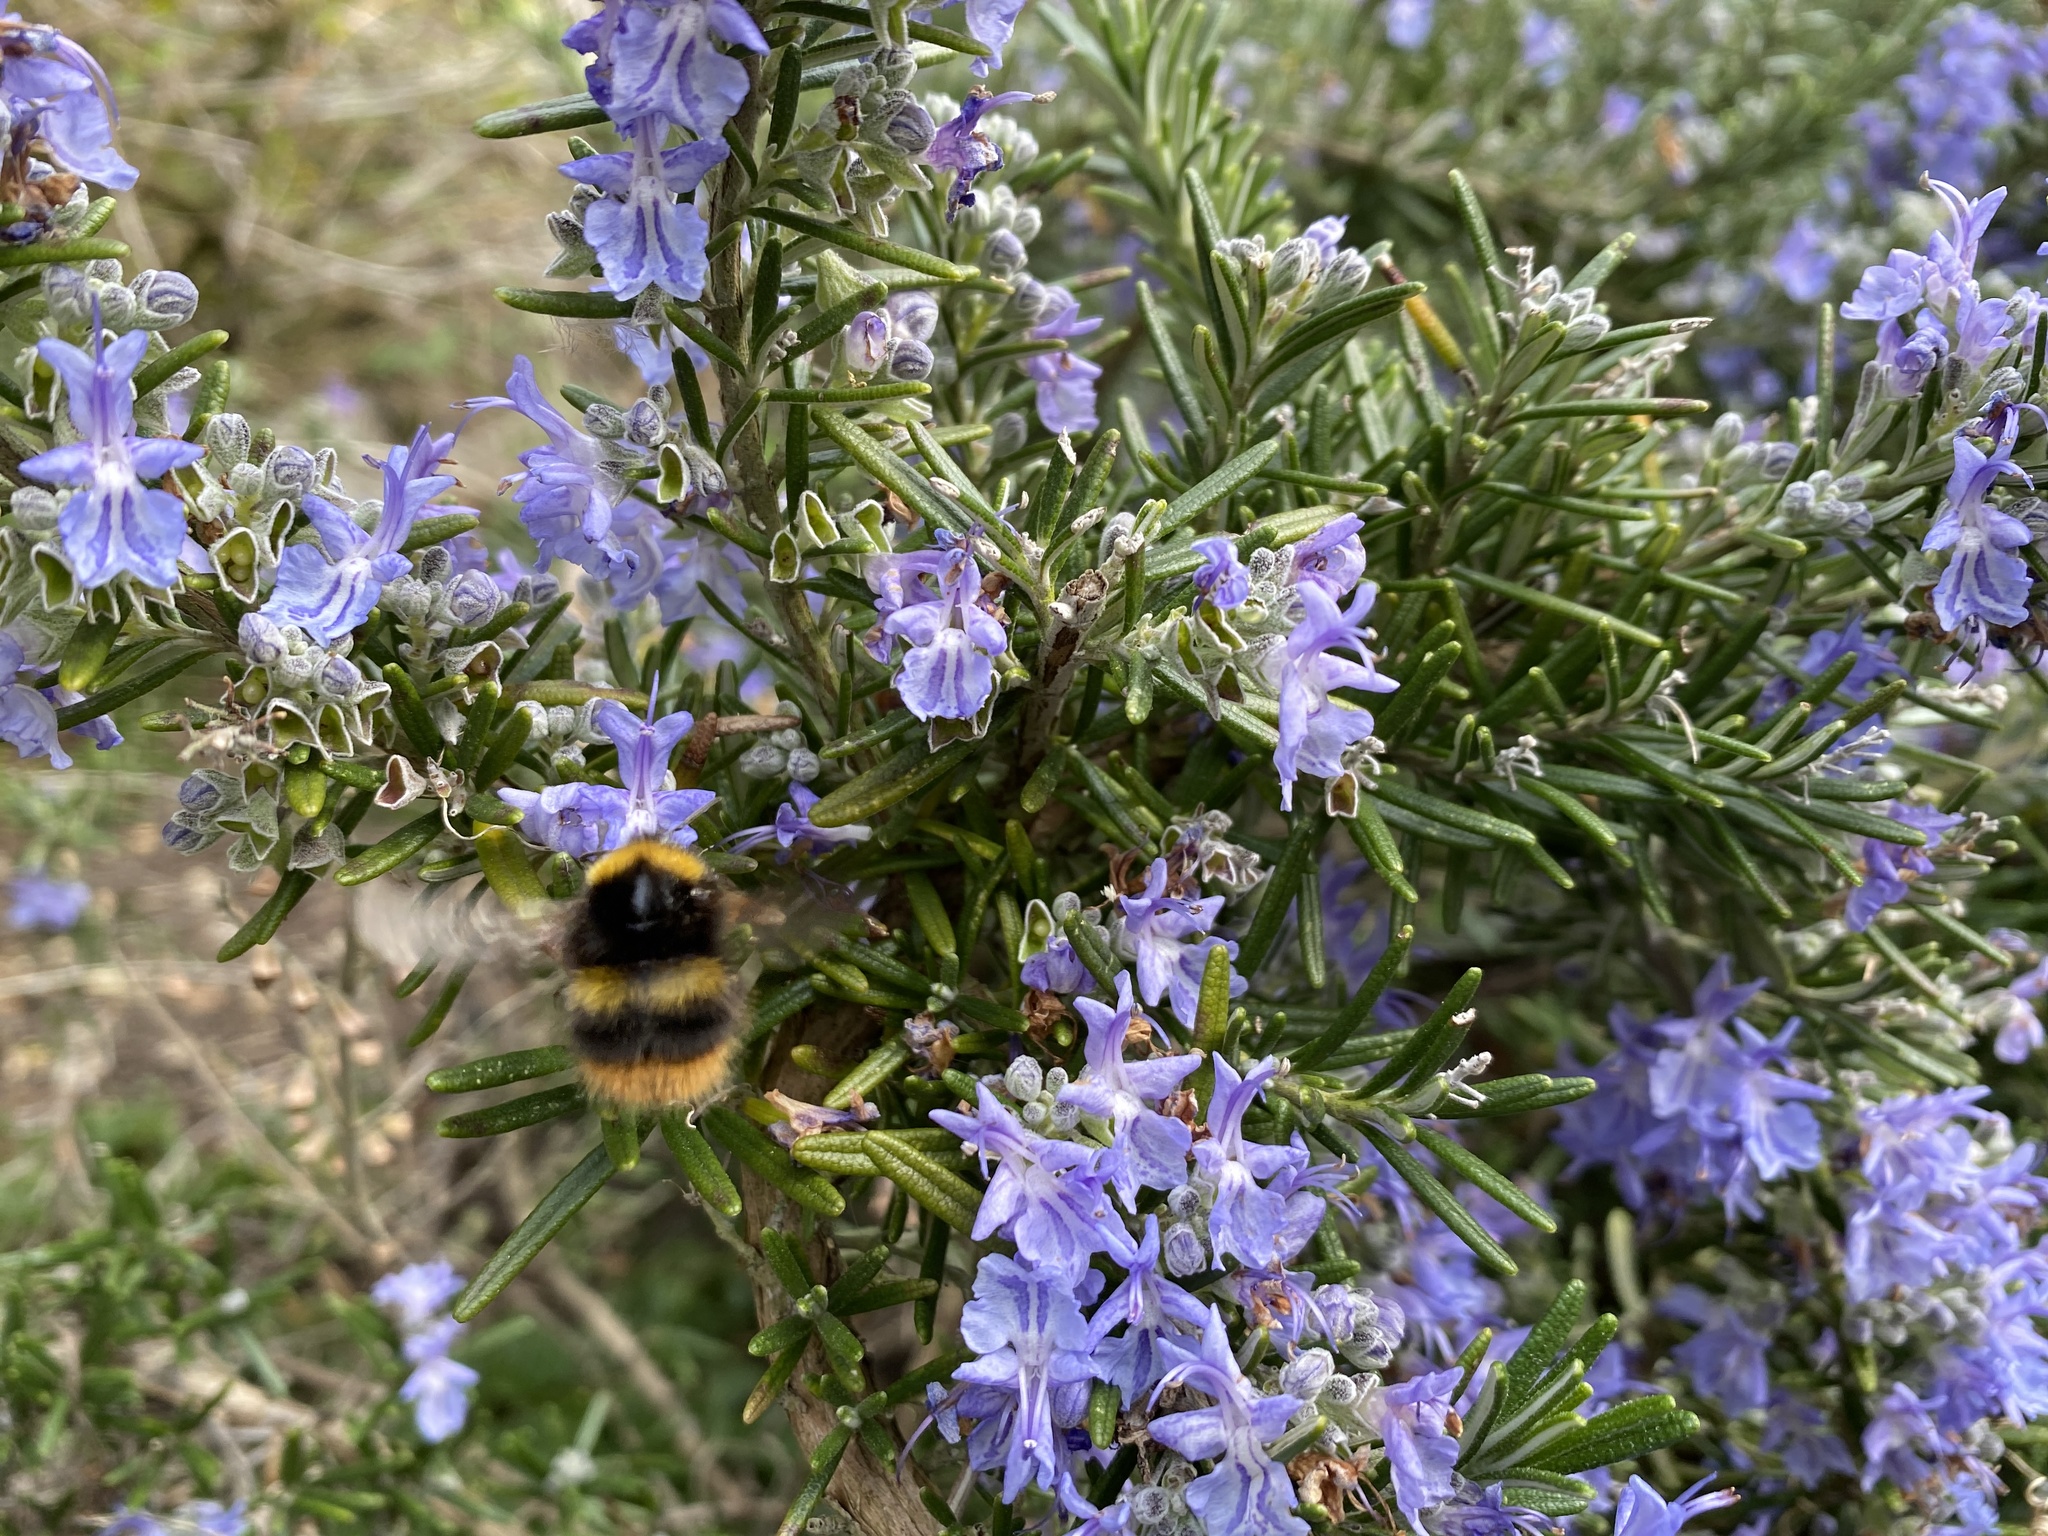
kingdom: Animalia
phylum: Arthropoda
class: Insecta
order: Hymenoptera
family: Apidae
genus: Bombus
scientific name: Bombus pratorum
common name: Early humble-bee
